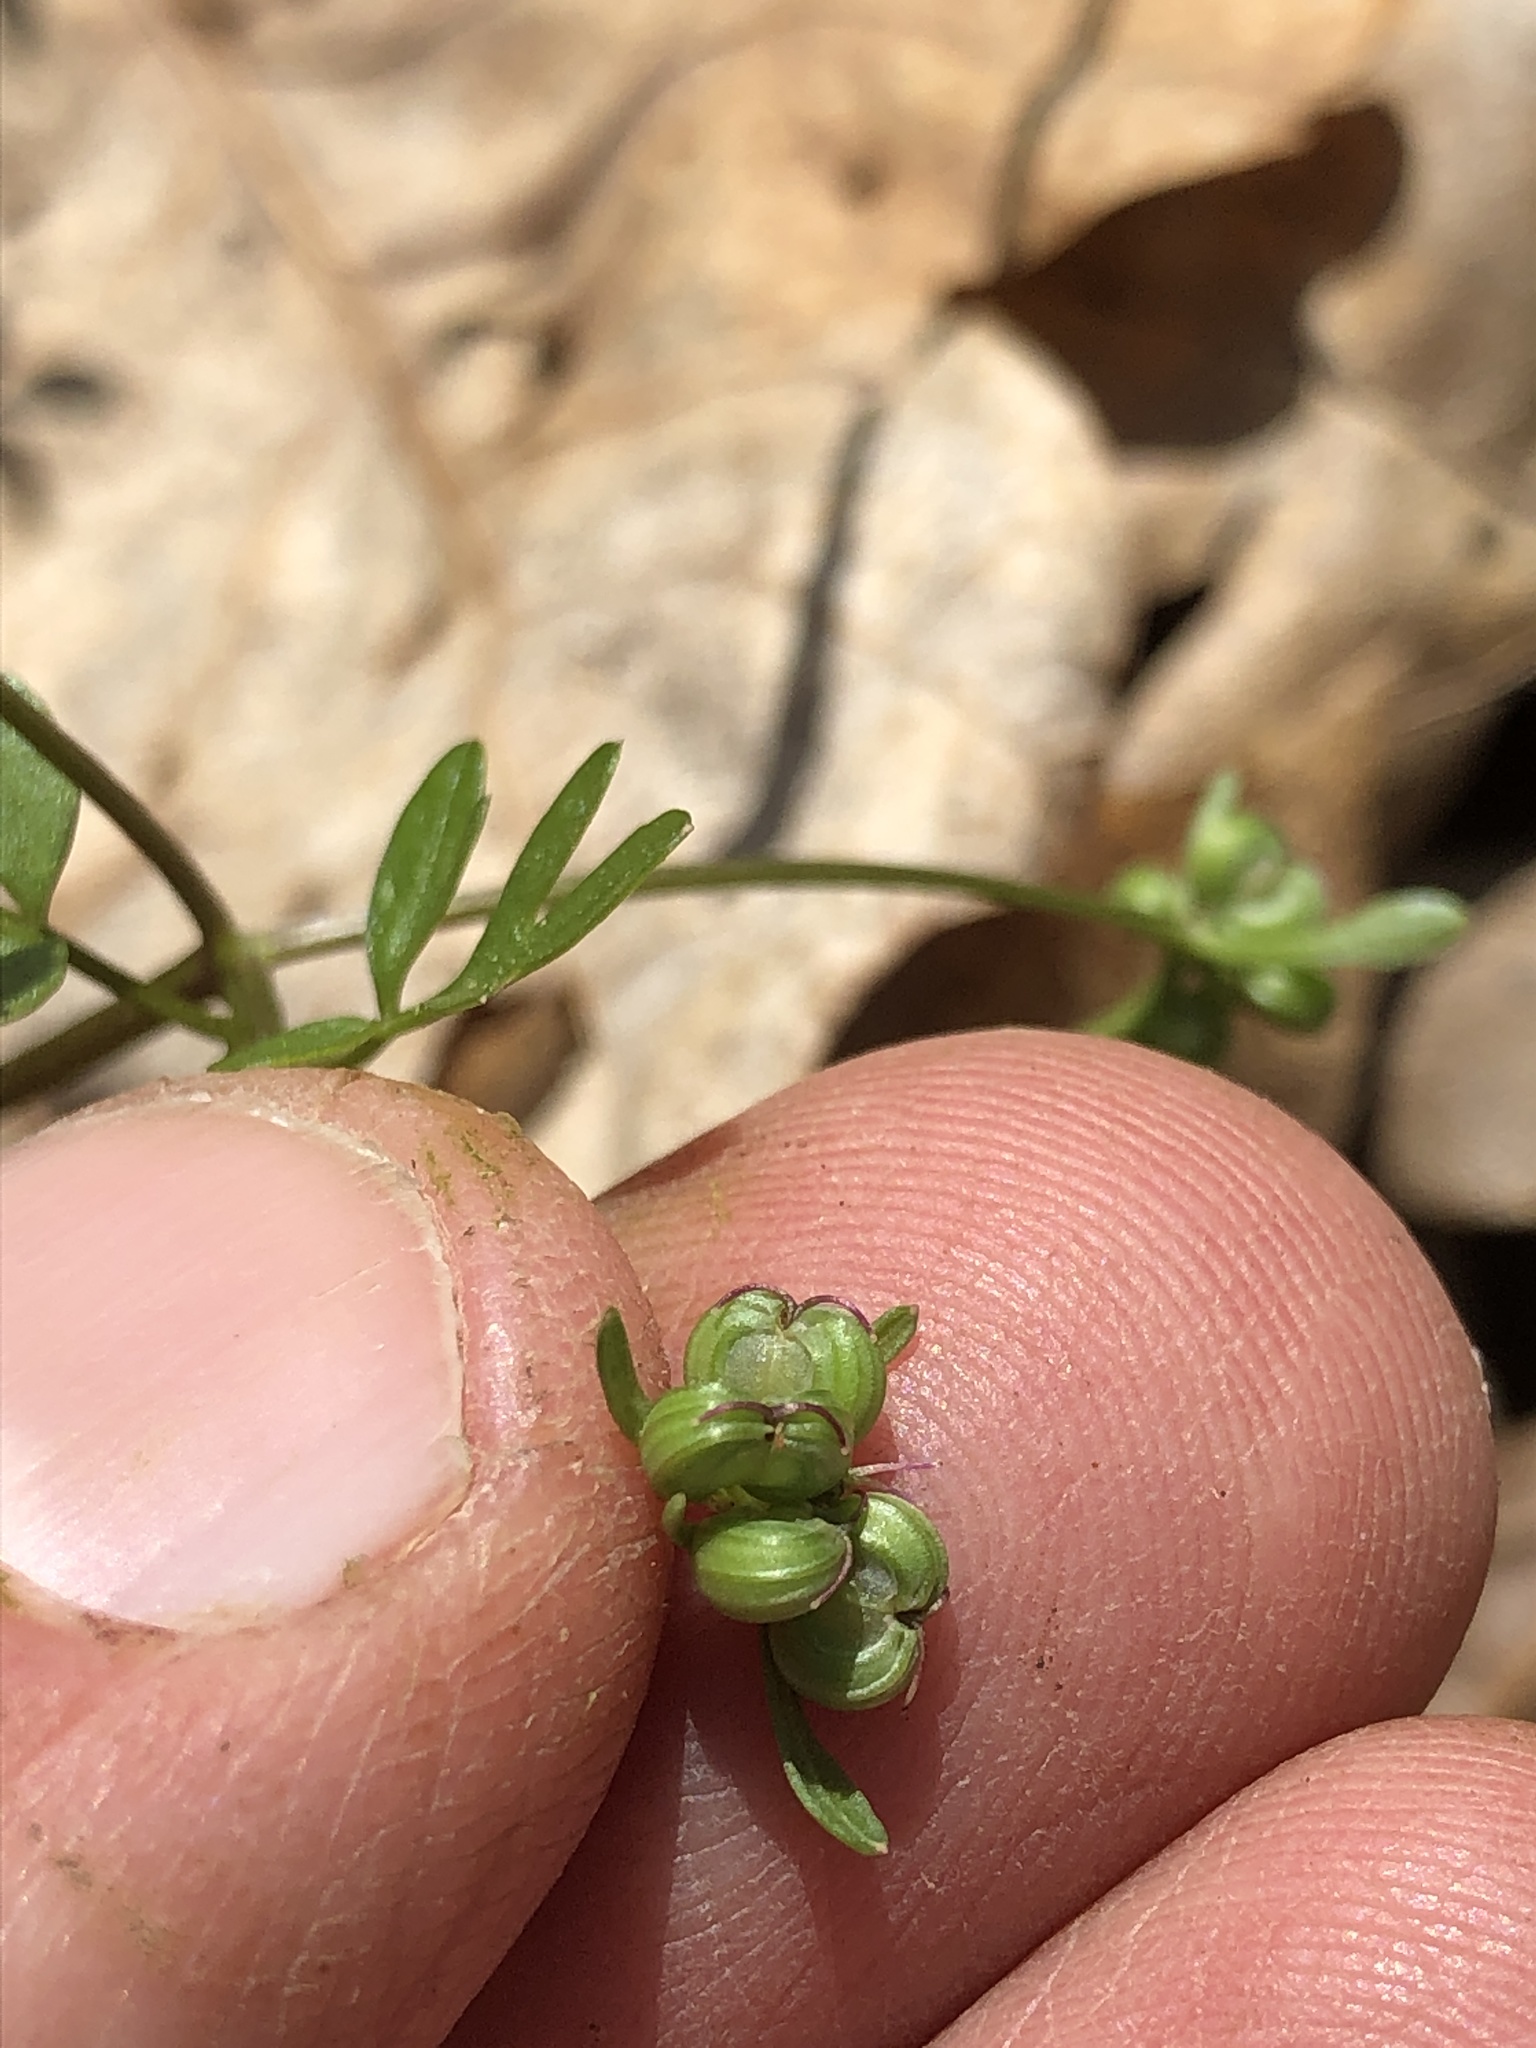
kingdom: Plantae
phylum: Tracheophyta
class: Magnoliopsida
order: Apiales
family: Apiaceae
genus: Erigenia
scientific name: Erigenia bulbosa
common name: Pepper-and-salt
